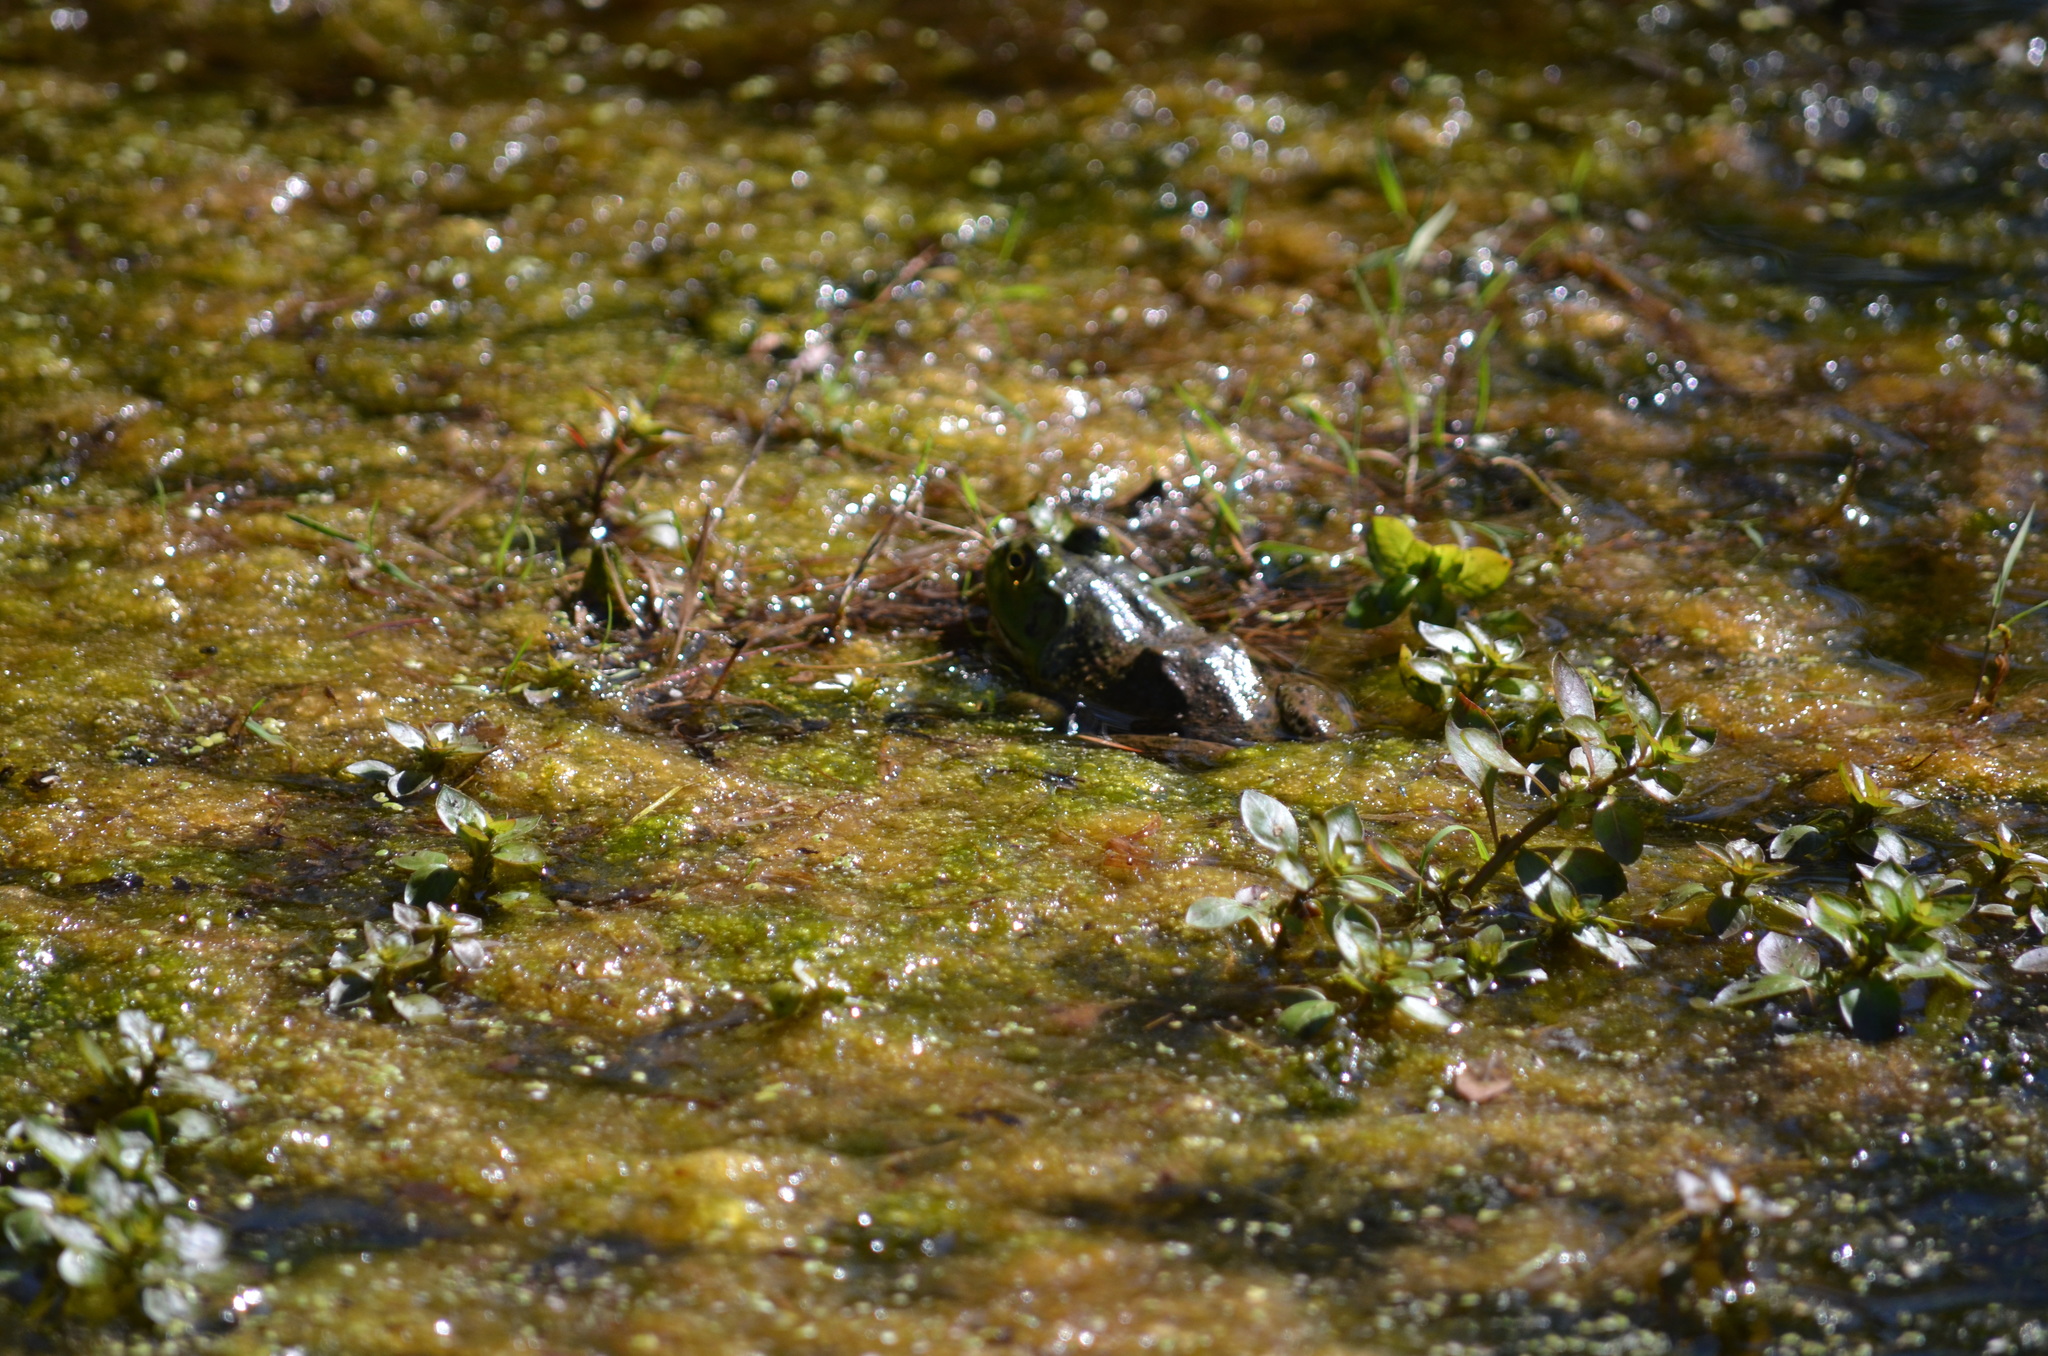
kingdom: Animalia
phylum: Chordata
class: Amphibia
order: Anura
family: Ranidae
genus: Lithobates
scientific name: Lithobates catesbeianus
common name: American bullfrog
